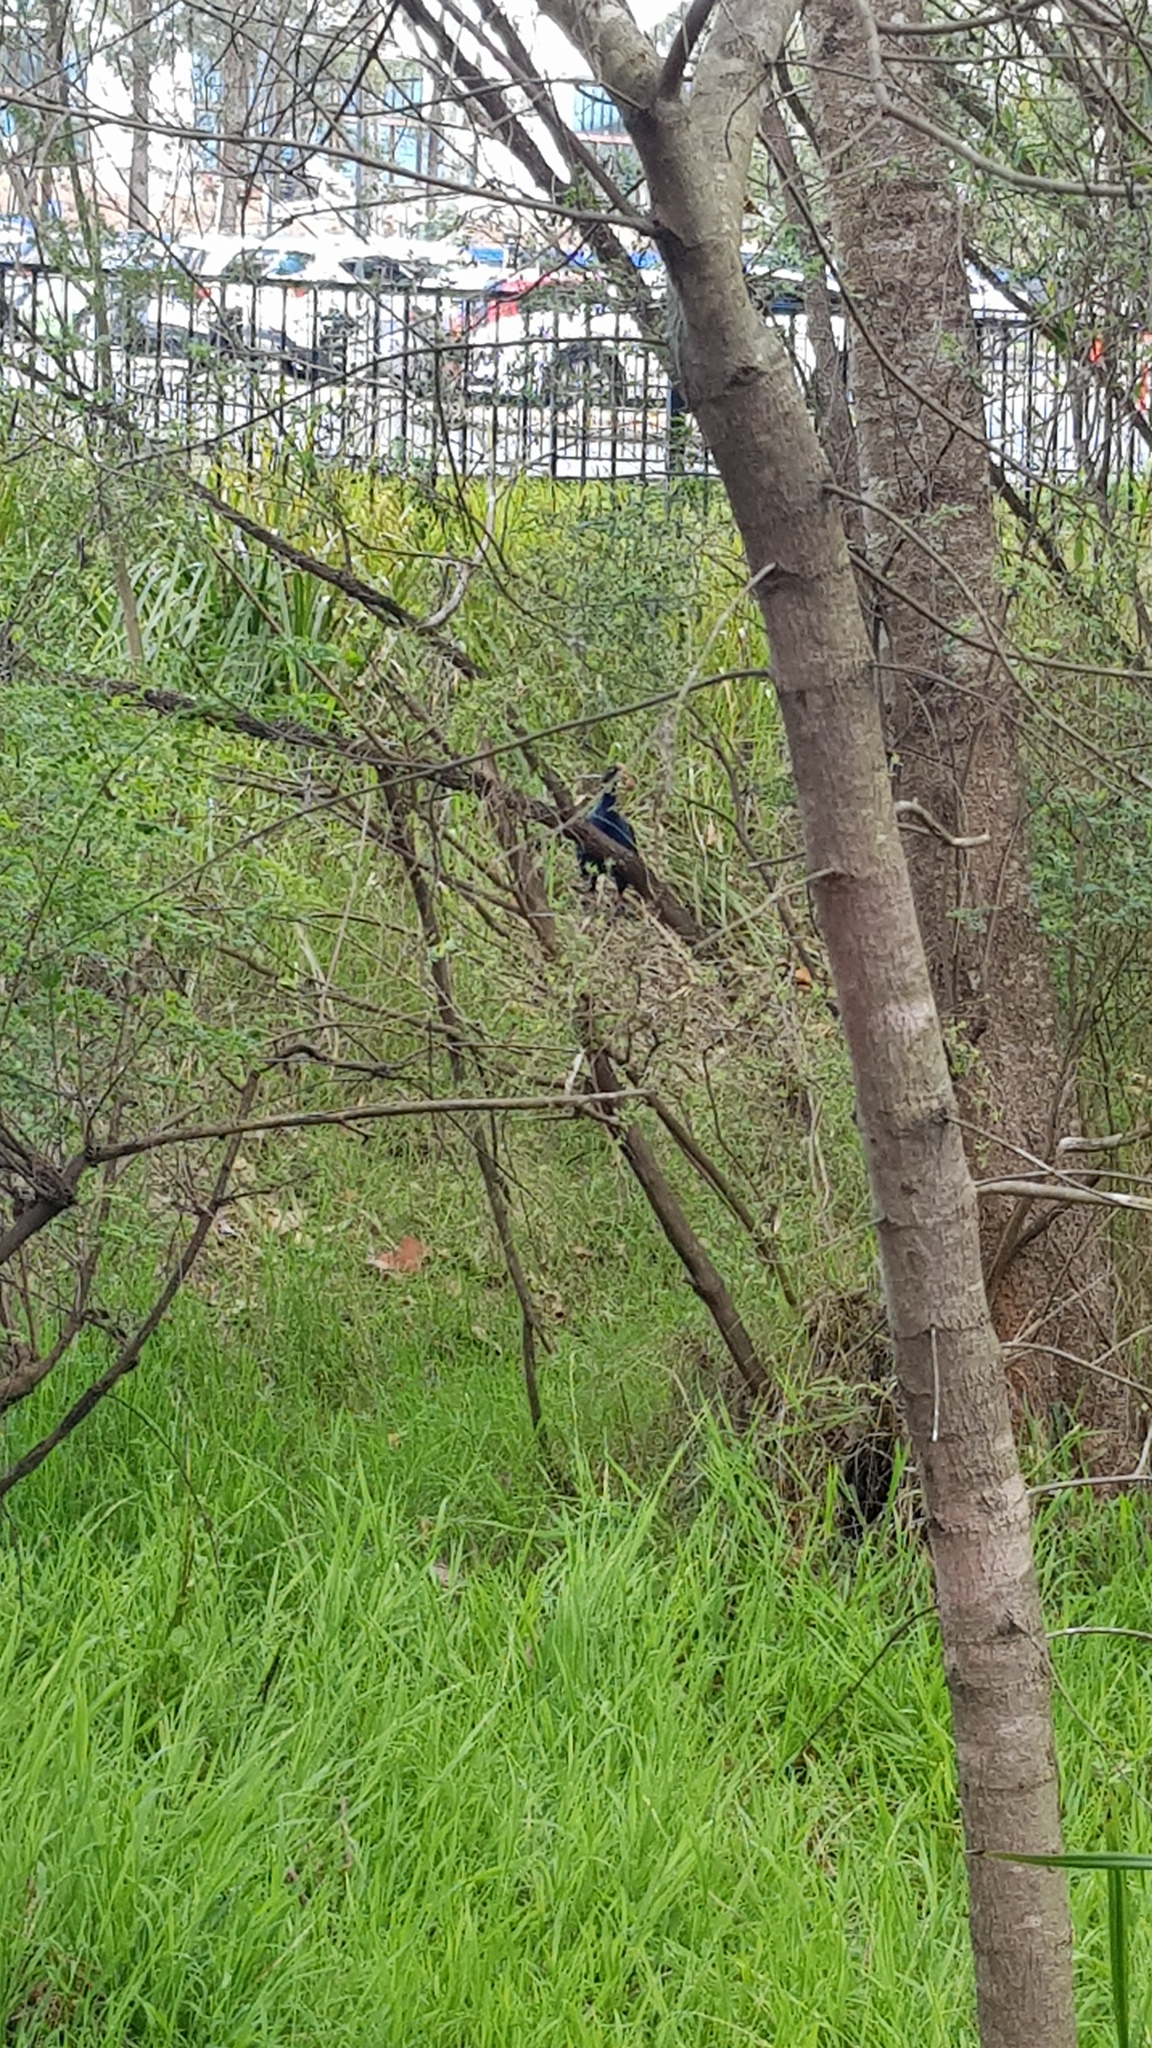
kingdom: Animalia
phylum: Chordata
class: Aves
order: Gruiformes
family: Rallidae
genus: Porphyrio
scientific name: Porphyrio melanotus
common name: Australasian swamphen
